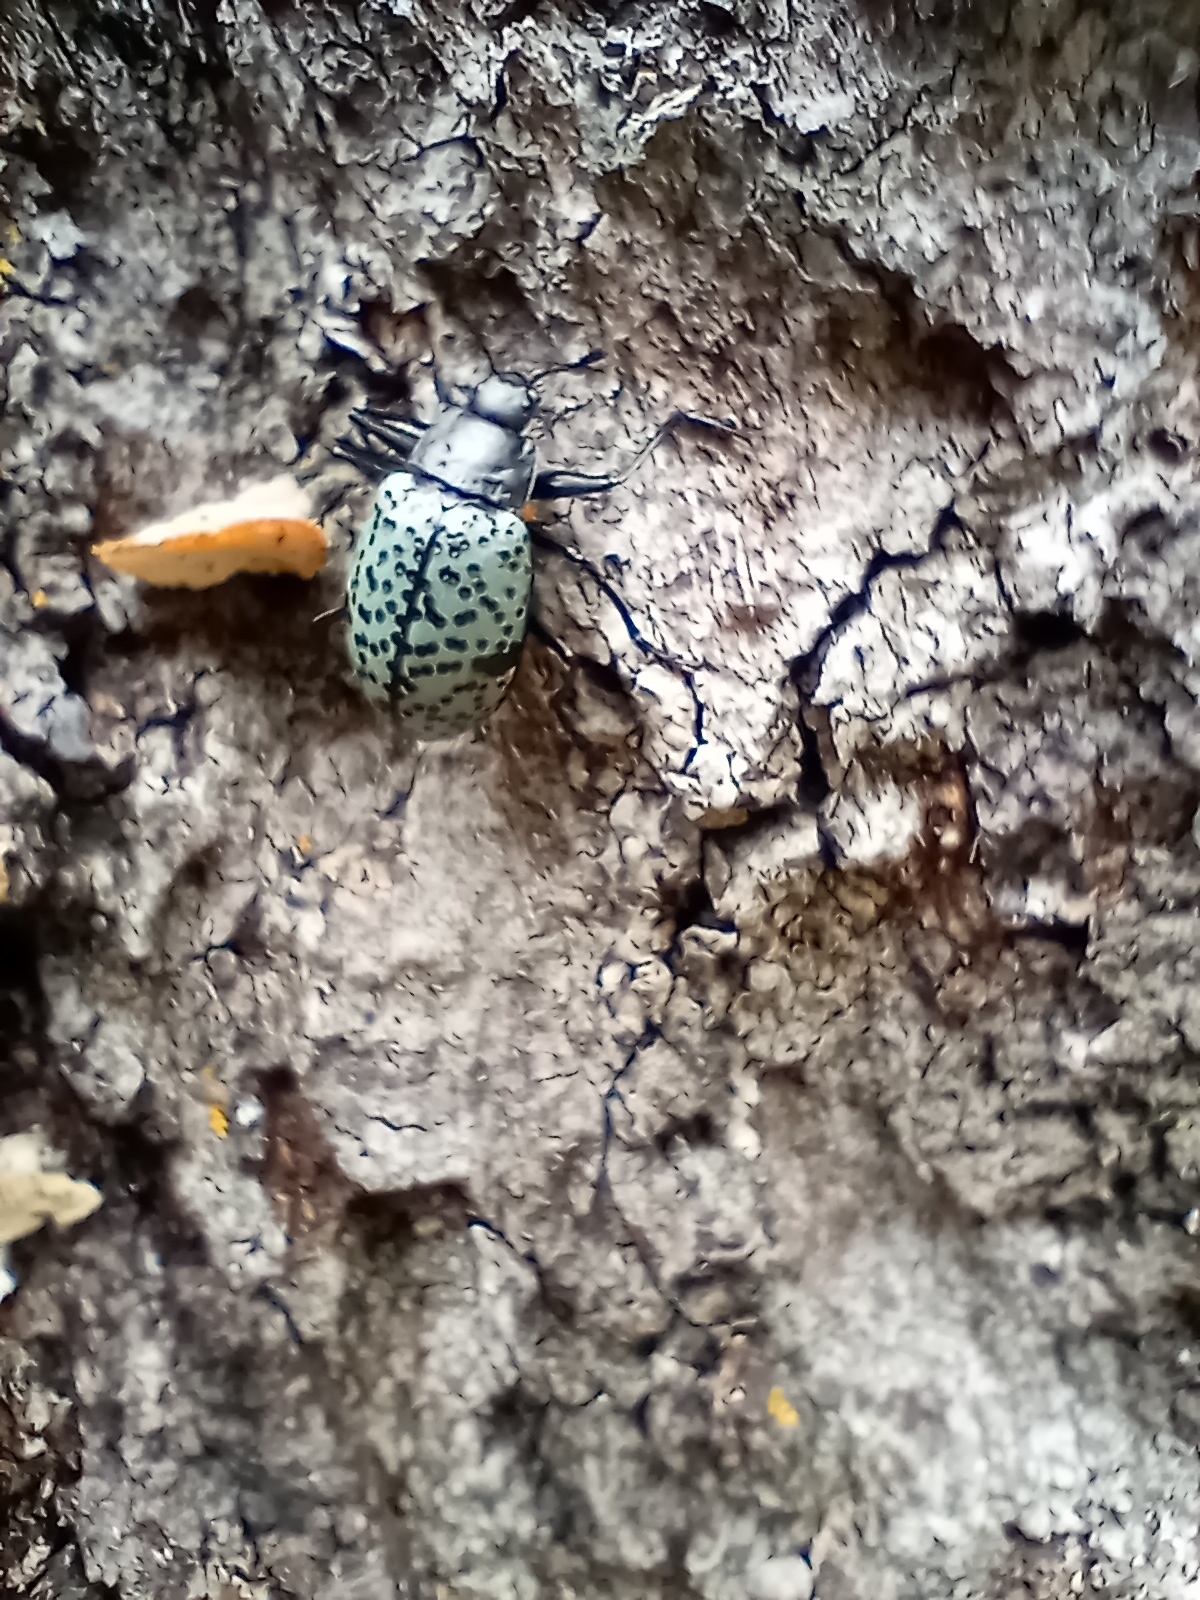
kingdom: Animalia
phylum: Arthropoda
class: Insecta
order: Coleoptera
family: Erotylidae
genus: Gibbifer
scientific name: Gibbifer californicus
